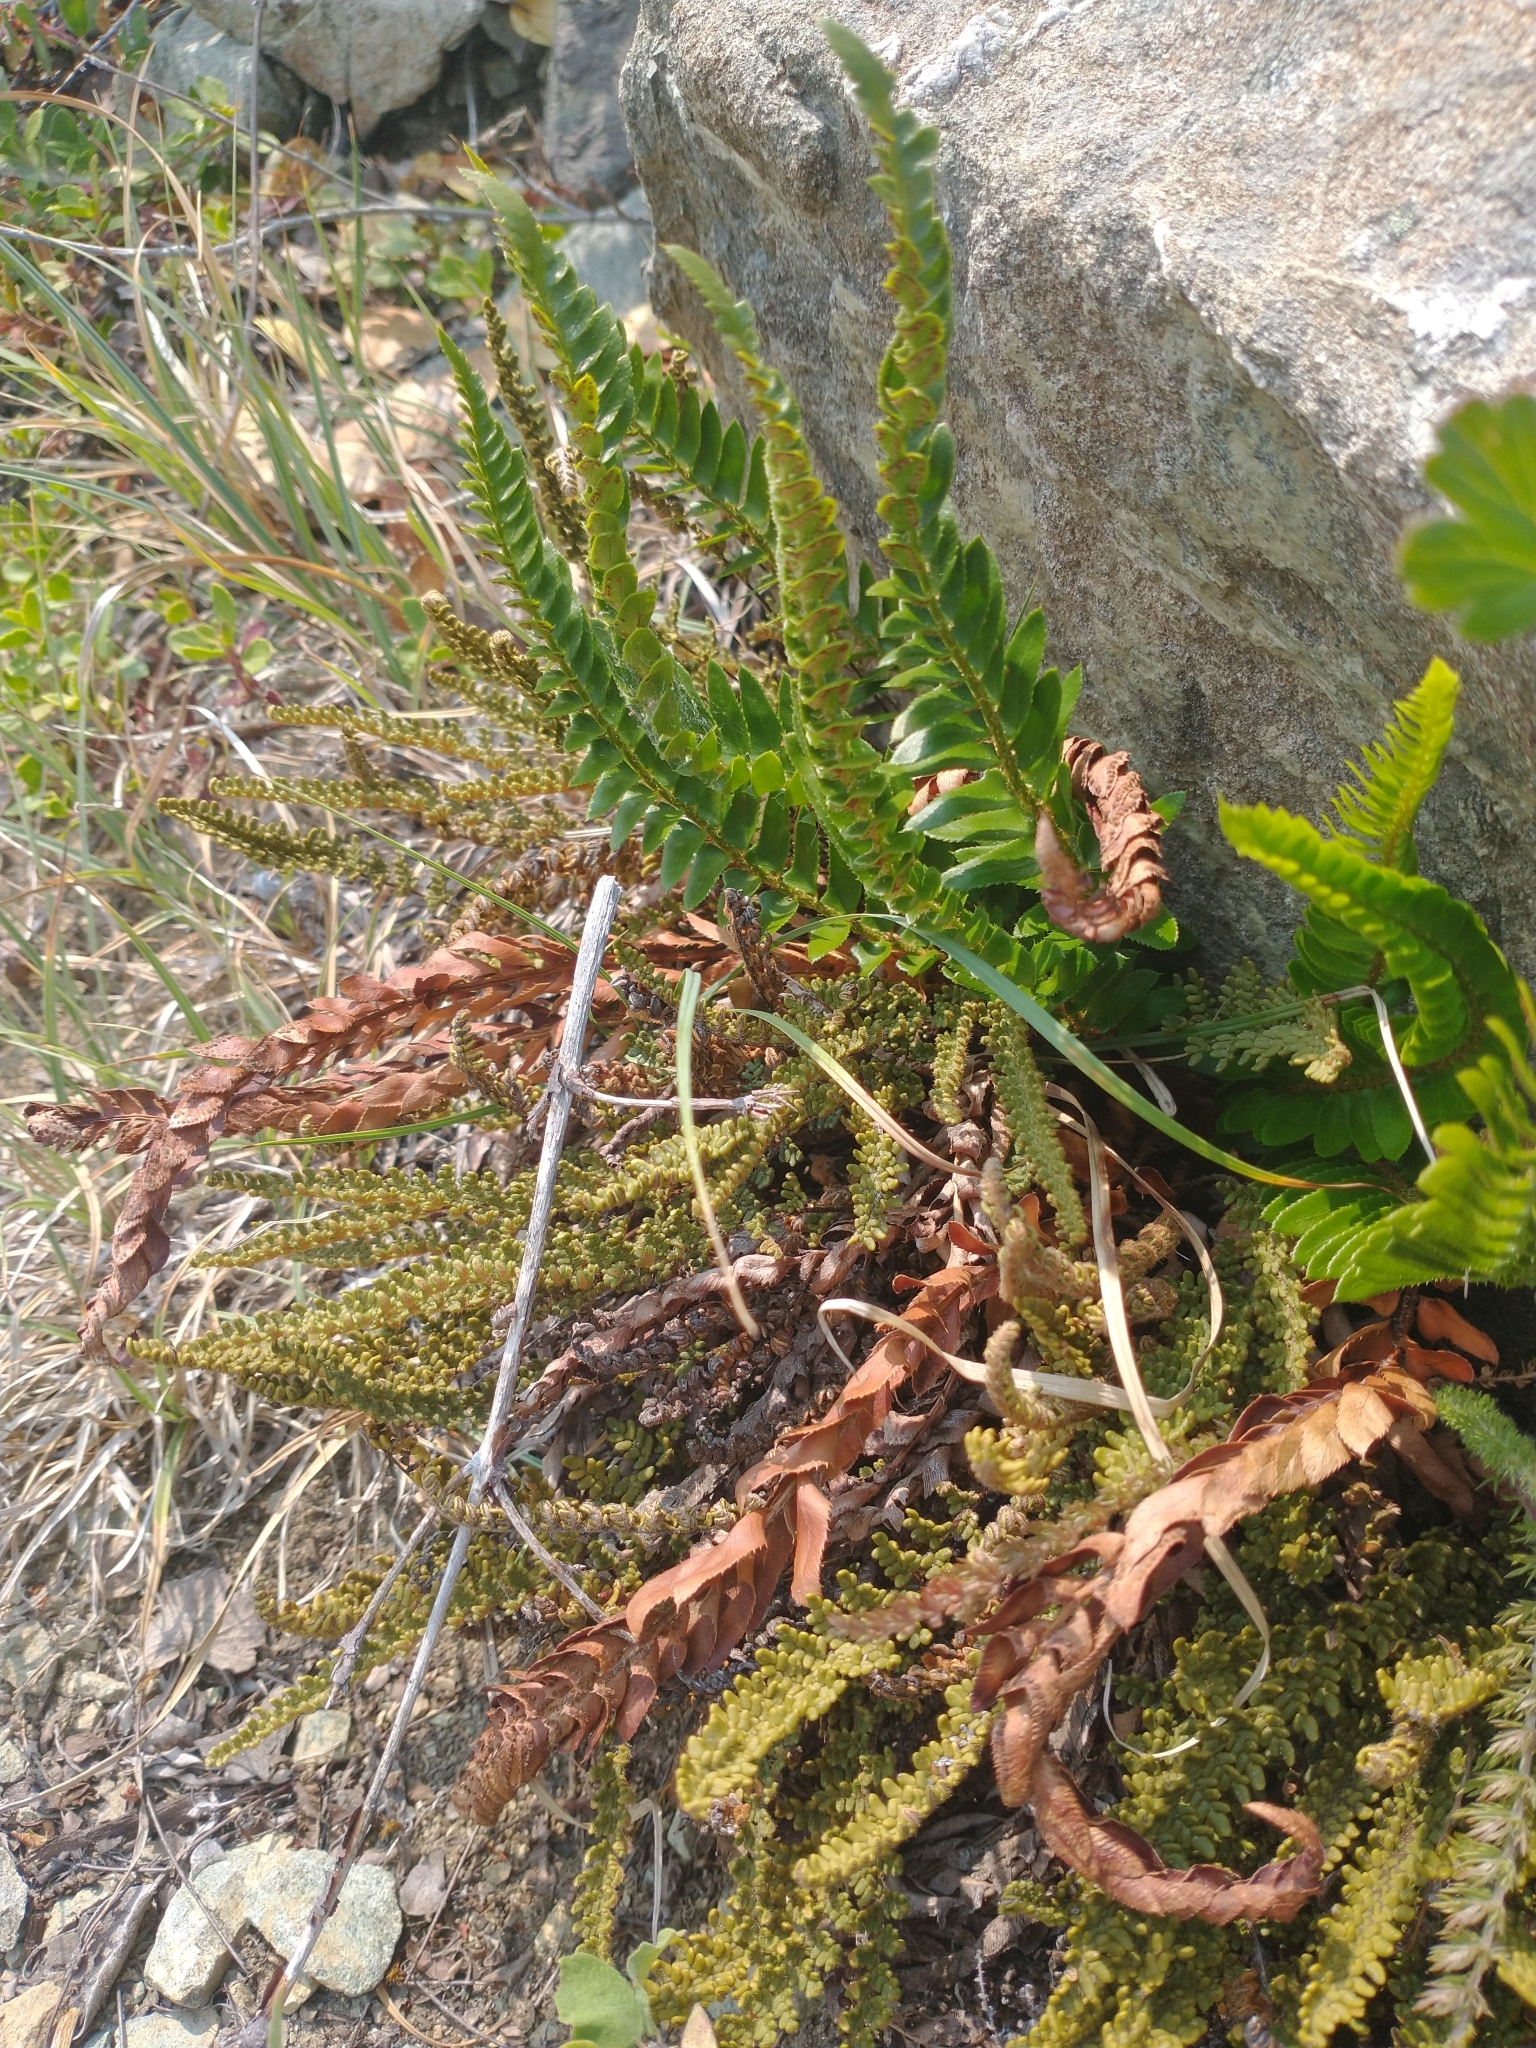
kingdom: Plantae
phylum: Tracheophyta
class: Polypodiopsida
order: Polypodiales
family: Pteridaceae
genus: Myriopteris
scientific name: Myriopteris gracillima
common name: Lace fern
